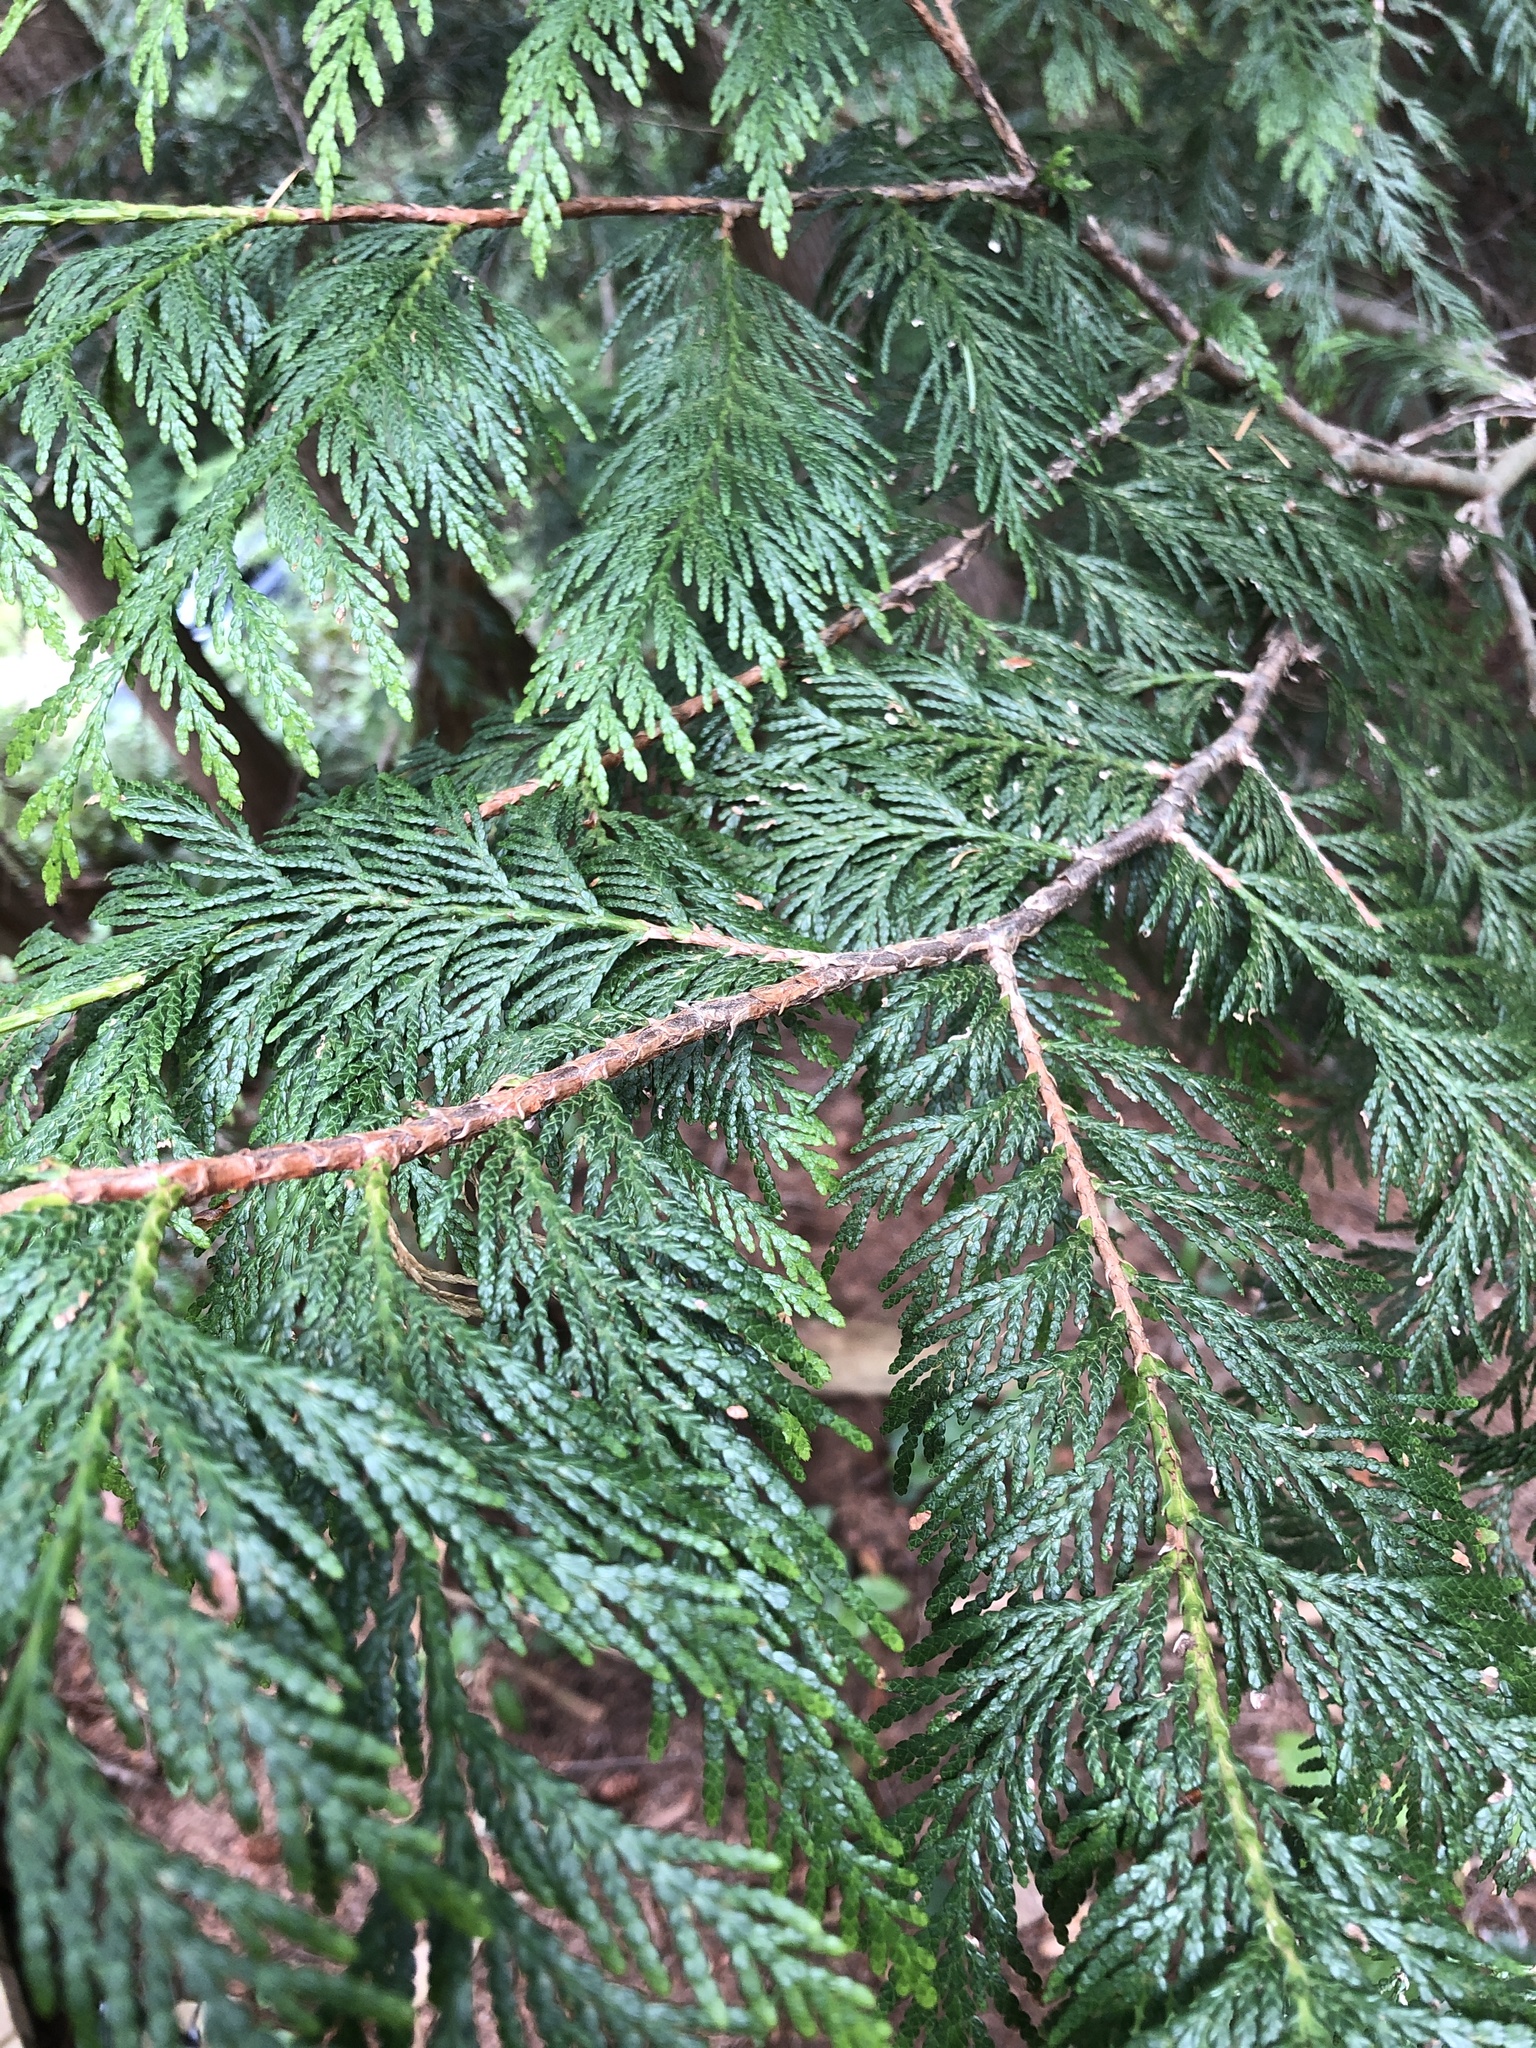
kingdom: Plantae
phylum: Tracheophyta
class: Pinopsida
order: Pinales
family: Cupressaceae
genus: Thuja
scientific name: Thuja plicata
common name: Western red-cedar
